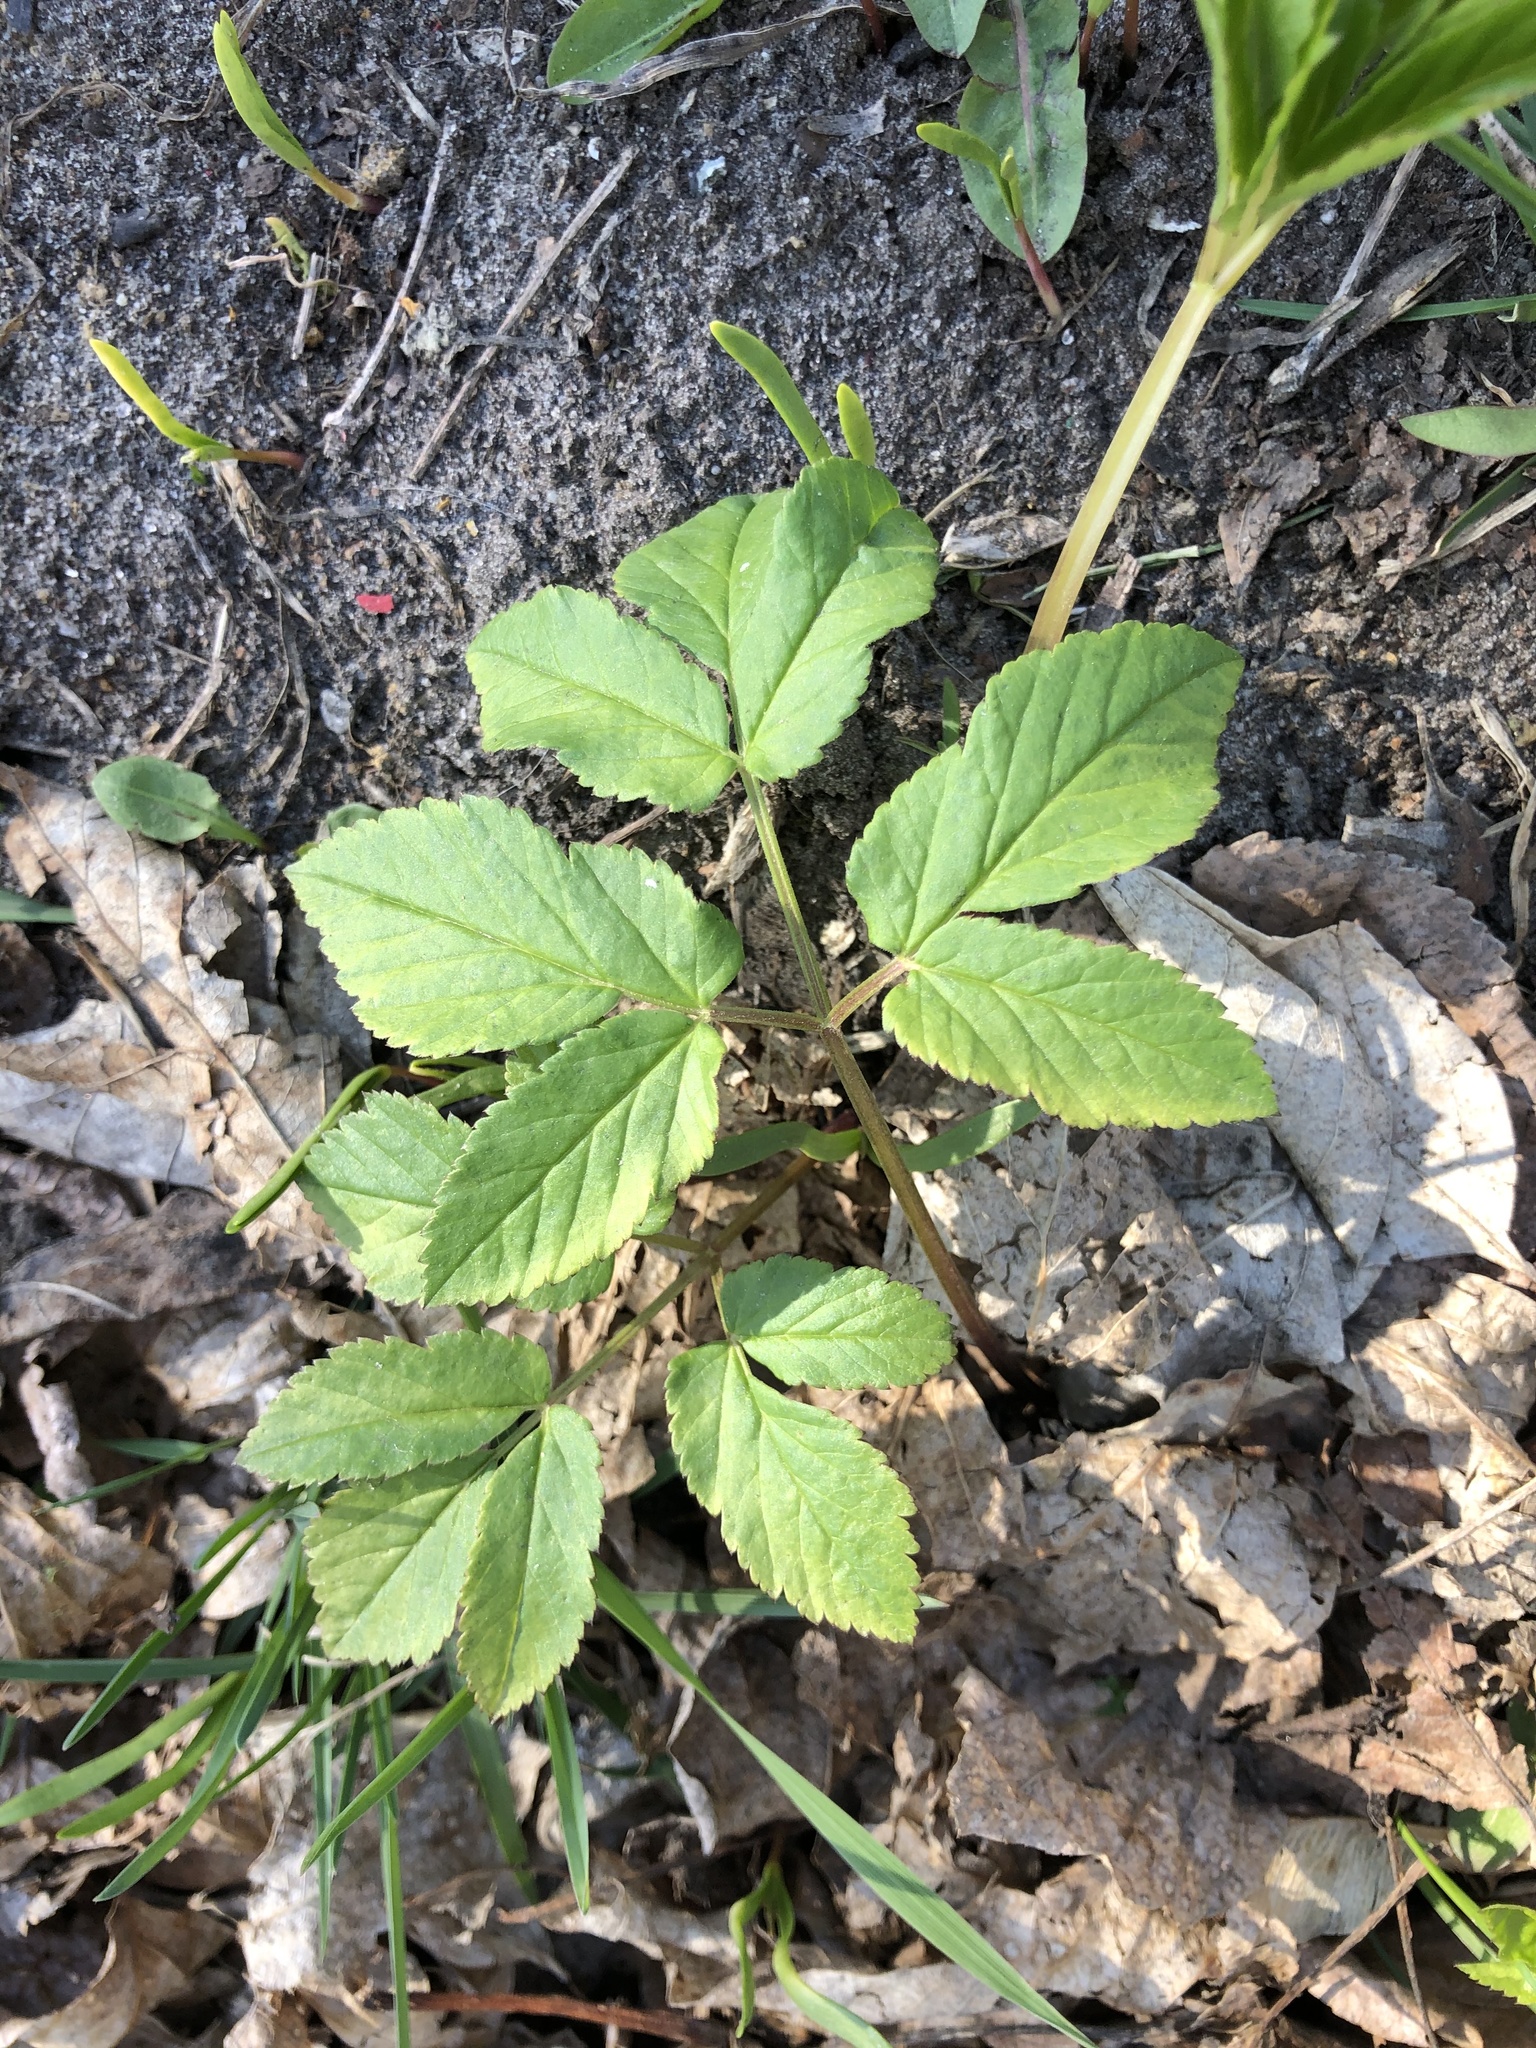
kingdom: Plantae
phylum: Tracheophyta
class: Magnoliopsida
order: Apiales
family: Apiaceae
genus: Aegopodium
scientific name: Aegopodium podagraria
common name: Ground-elder
